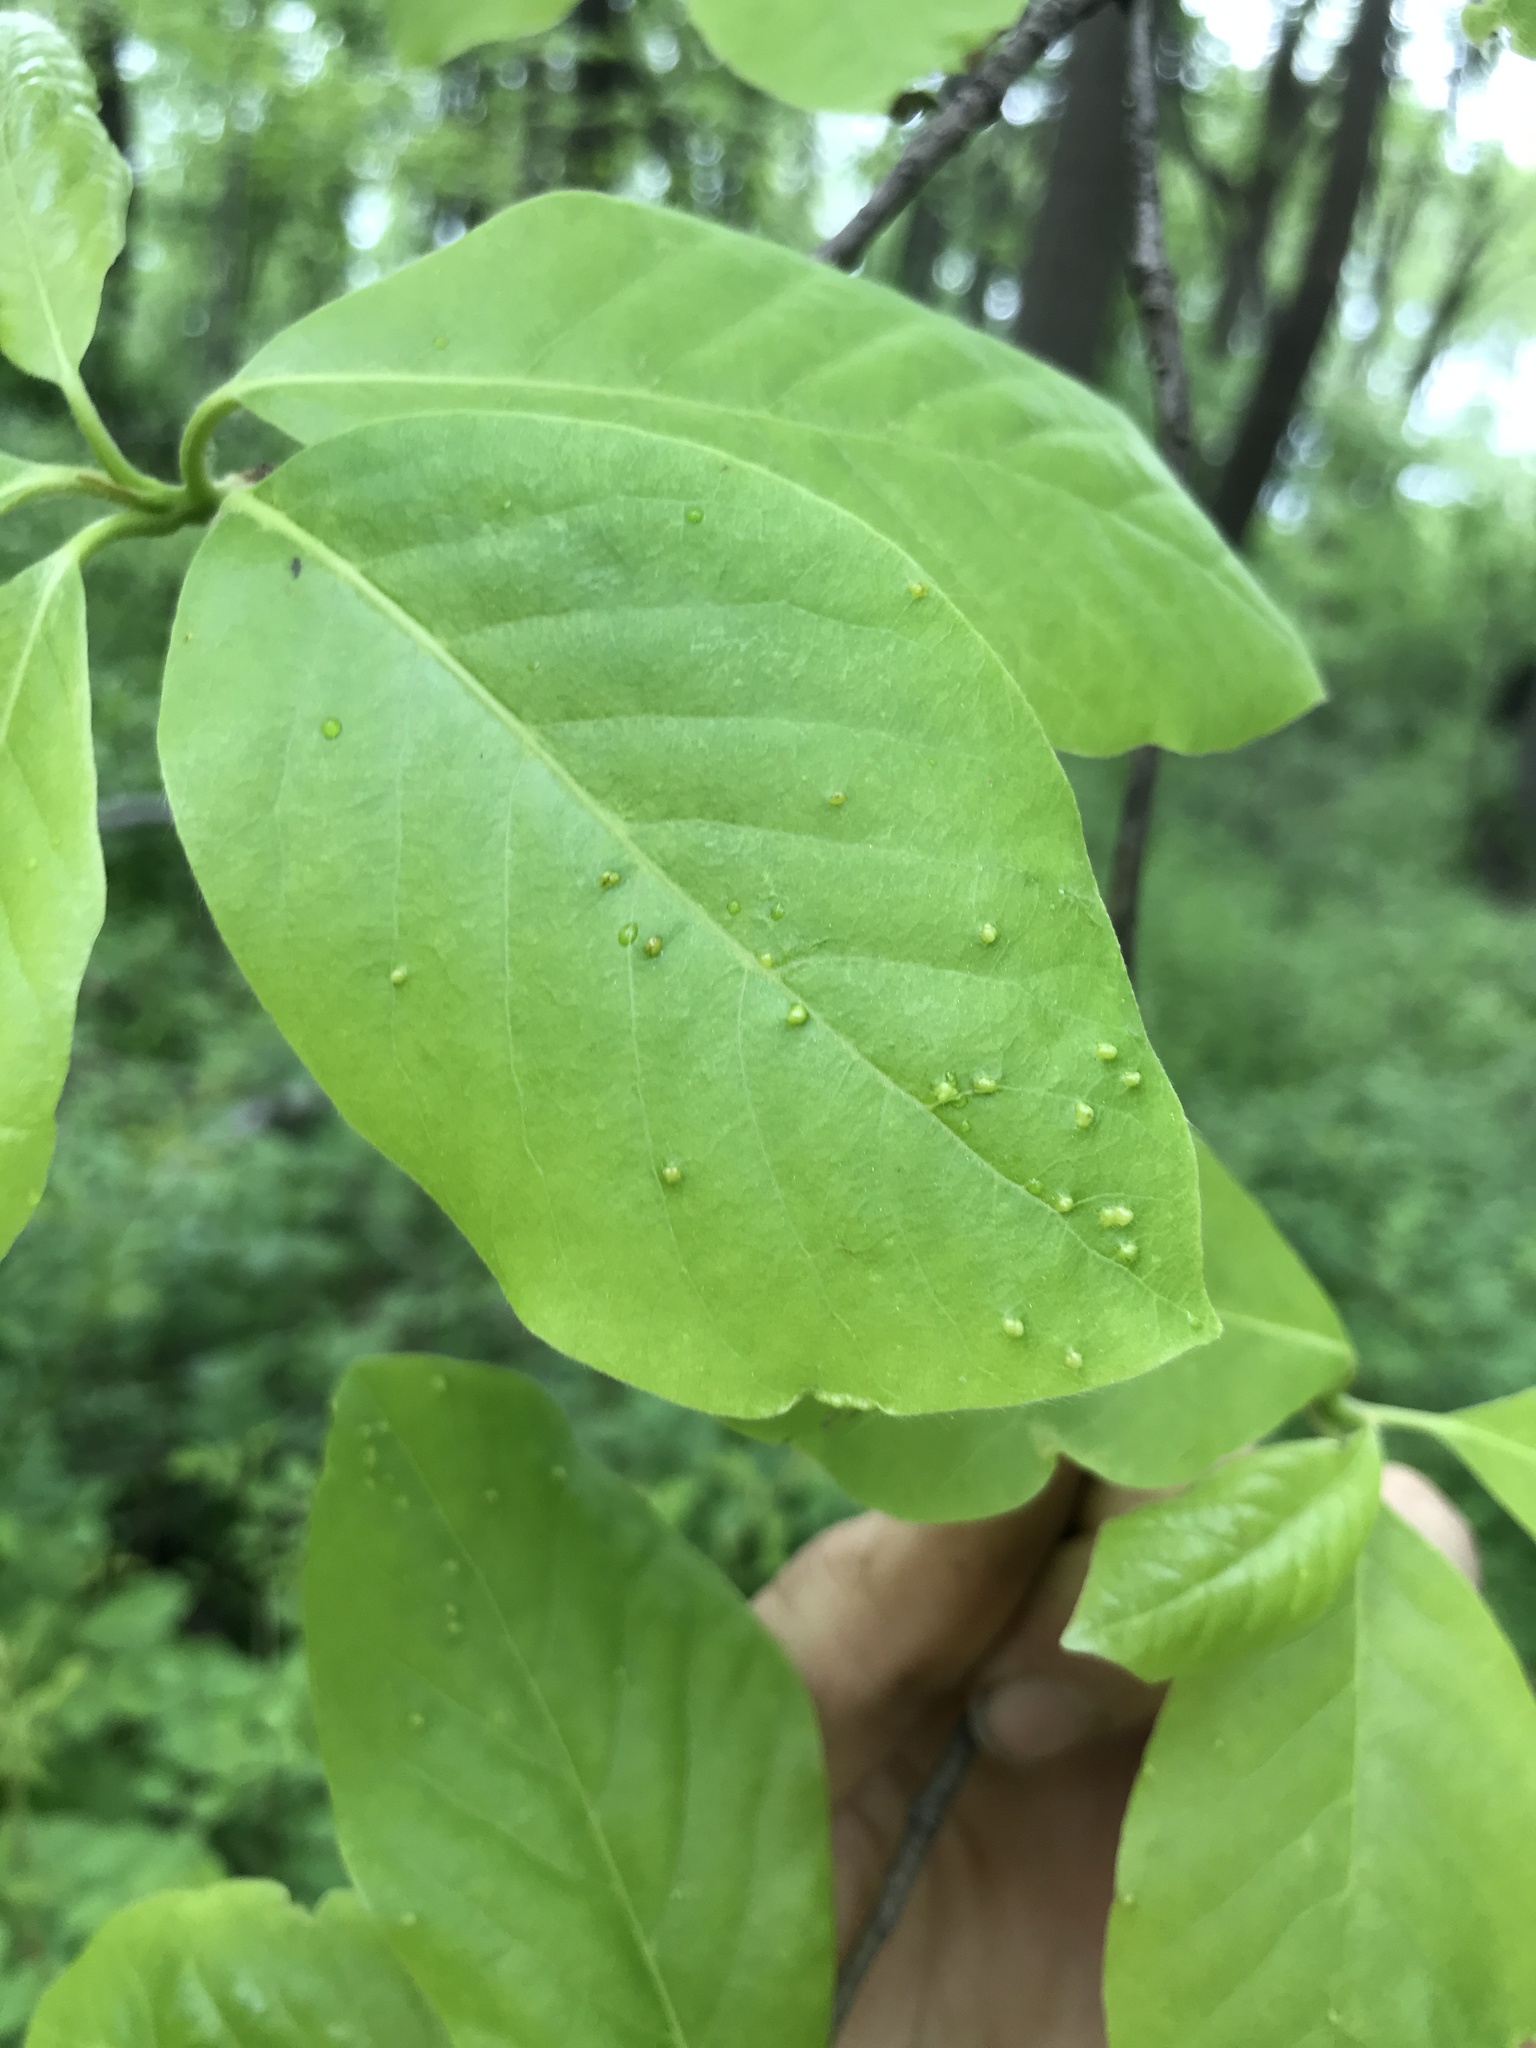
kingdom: Animalia
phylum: Arthropoda
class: Arachnida
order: Trombidiformes
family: Eriophyidae
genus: Aceria
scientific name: Aceria
